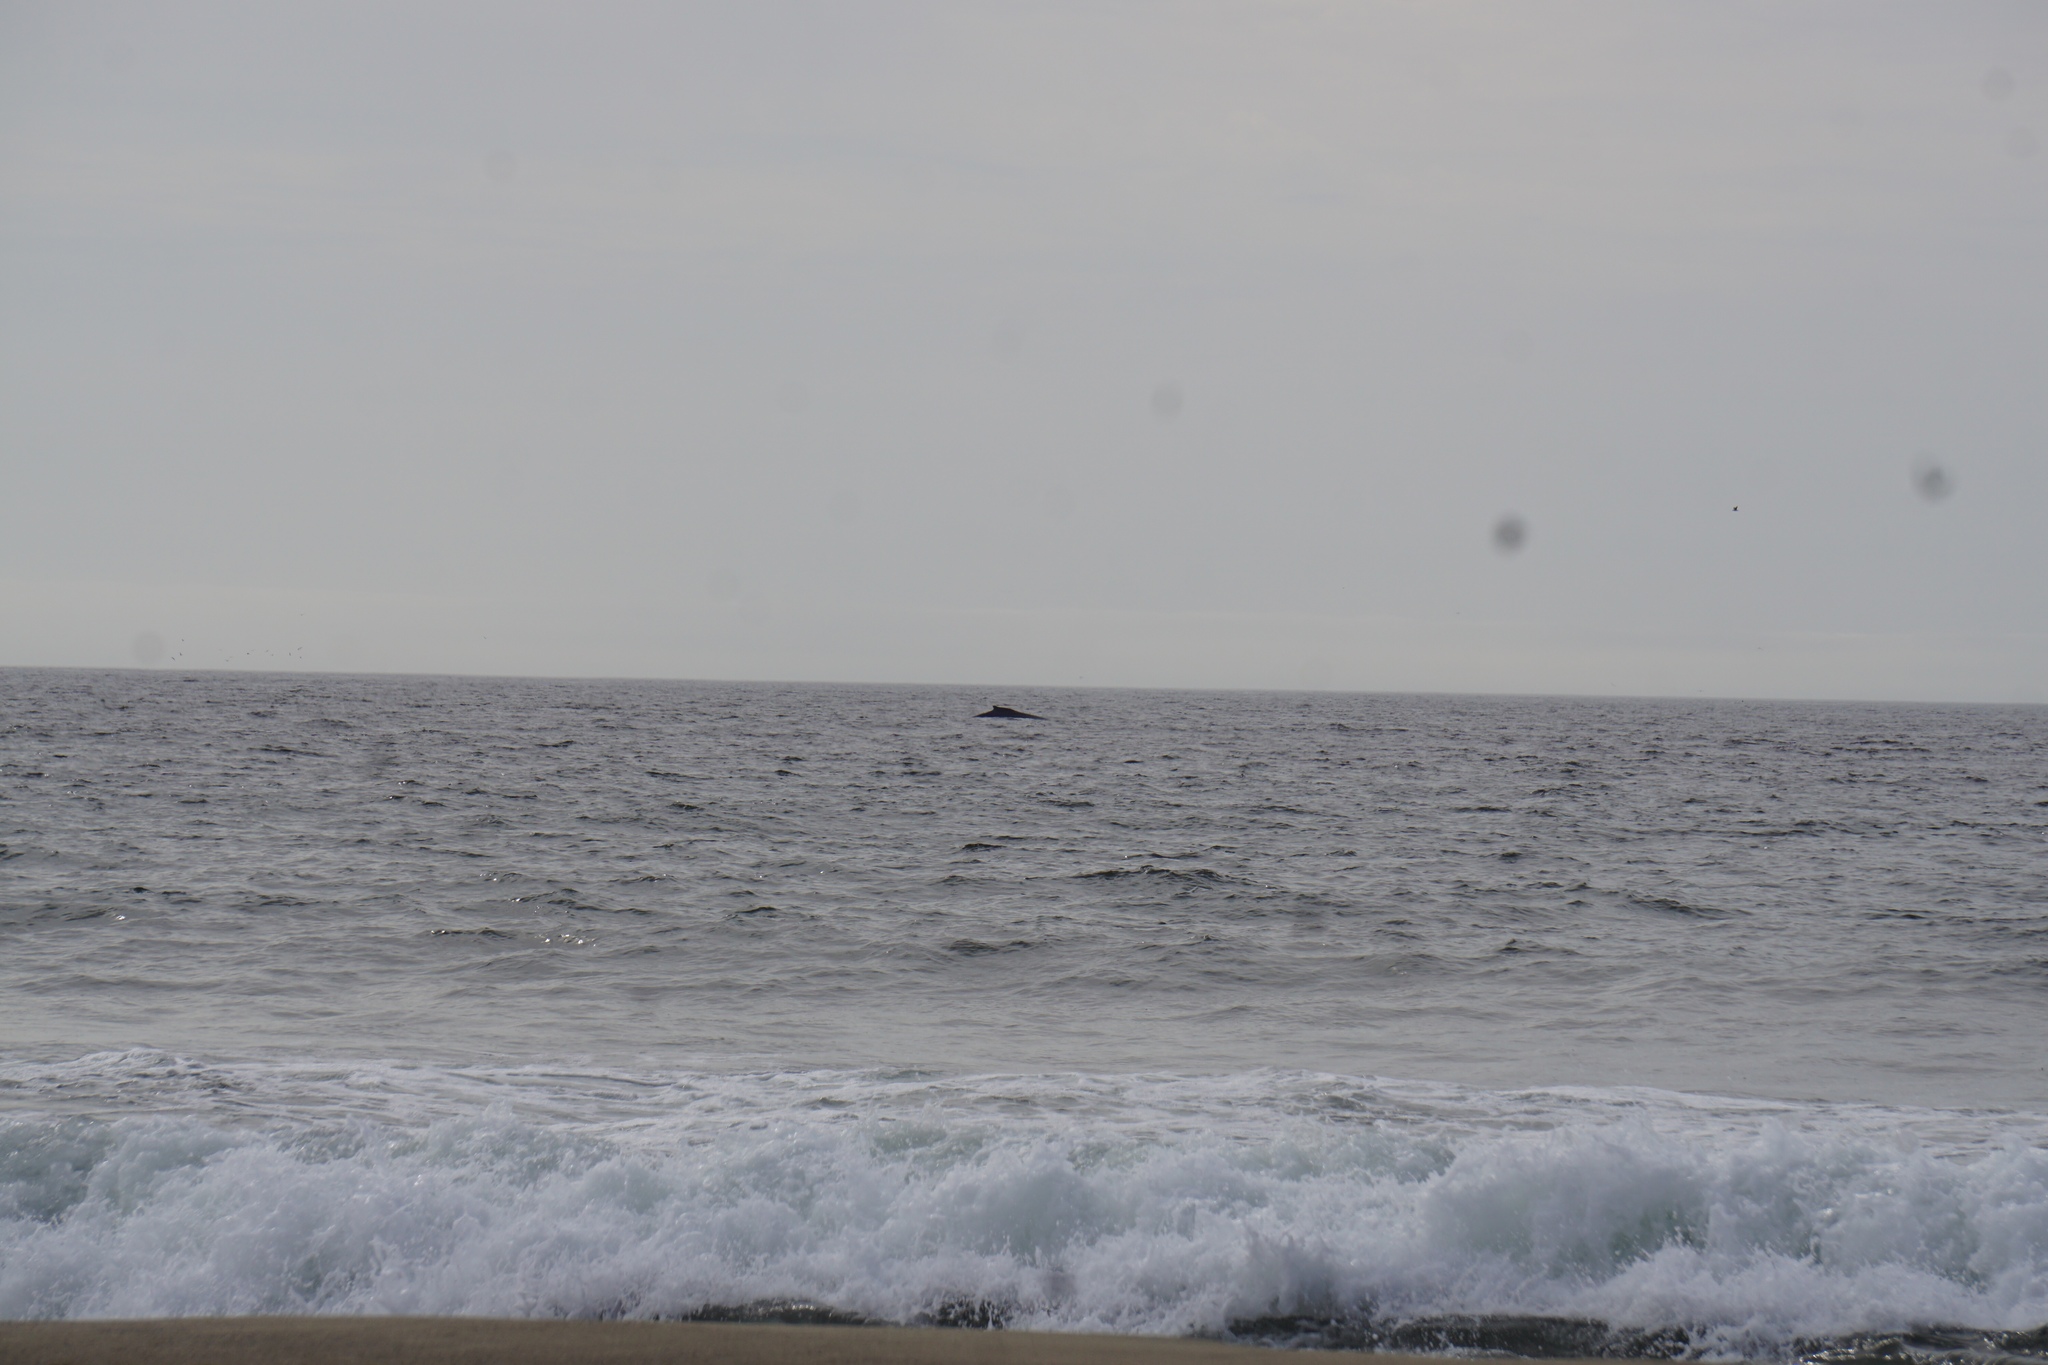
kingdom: Animalia
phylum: Chordata
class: Mammalia
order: Cetacea
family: Balaenopteridae
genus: Megaptera
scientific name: Megaptera novaeangliae
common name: Humpback whale
